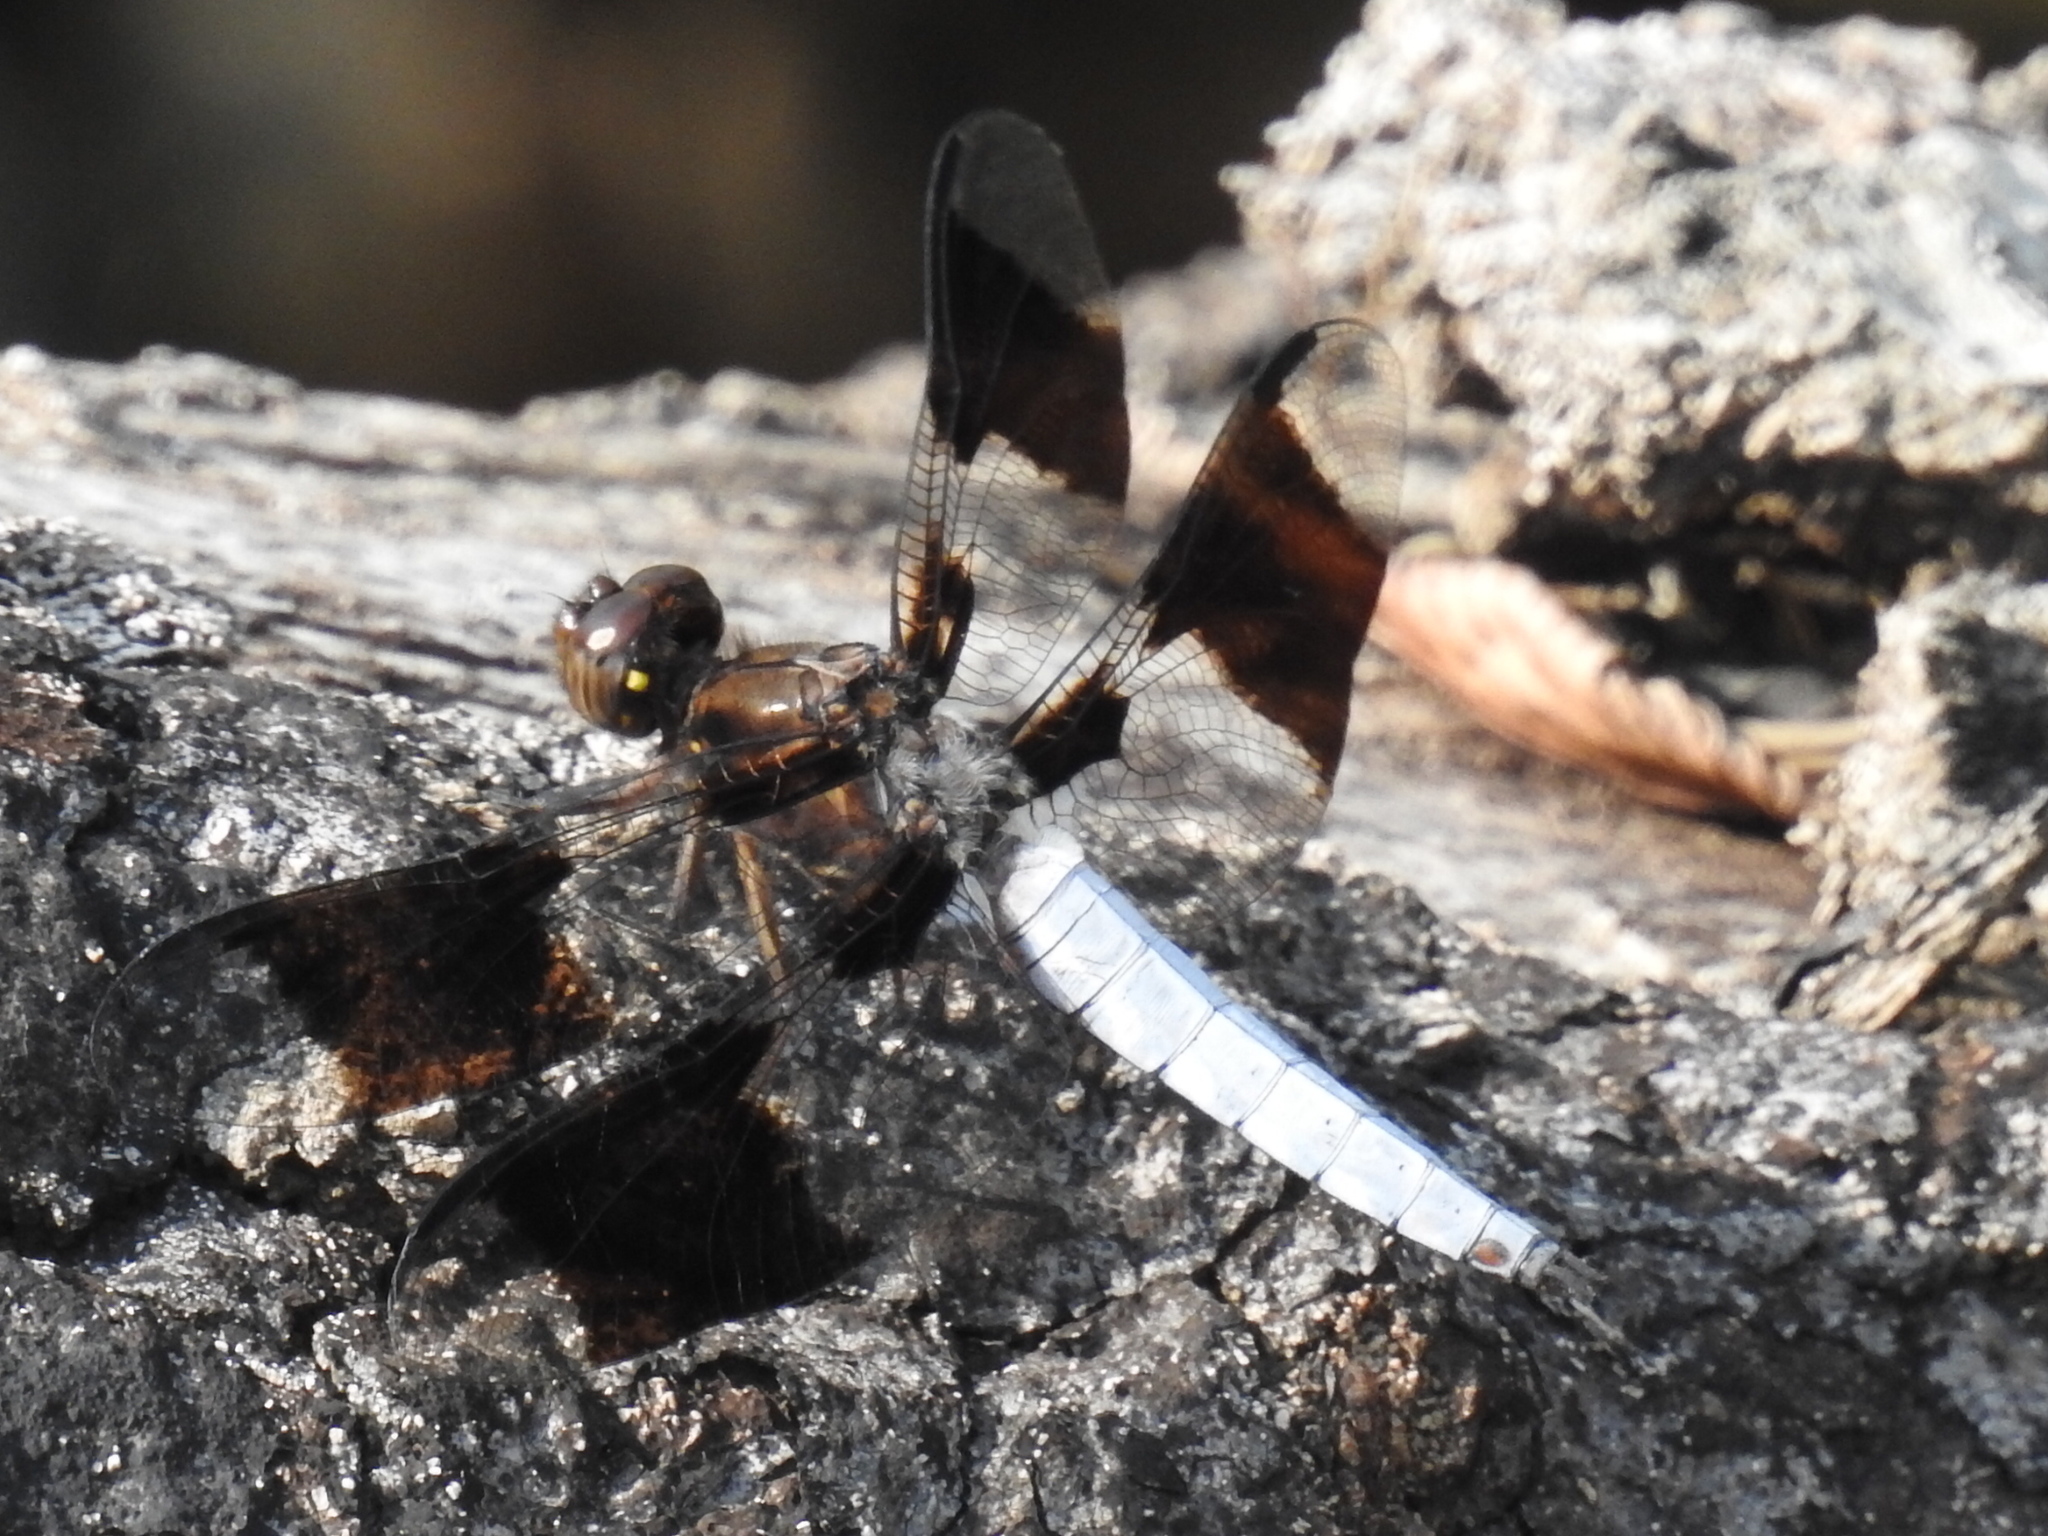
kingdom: Animalia
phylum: Arthropoda
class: Insecta
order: Odonata
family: Libellulidae
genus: Plathemis
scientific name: Plathemis lydia
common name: Common whitetail
